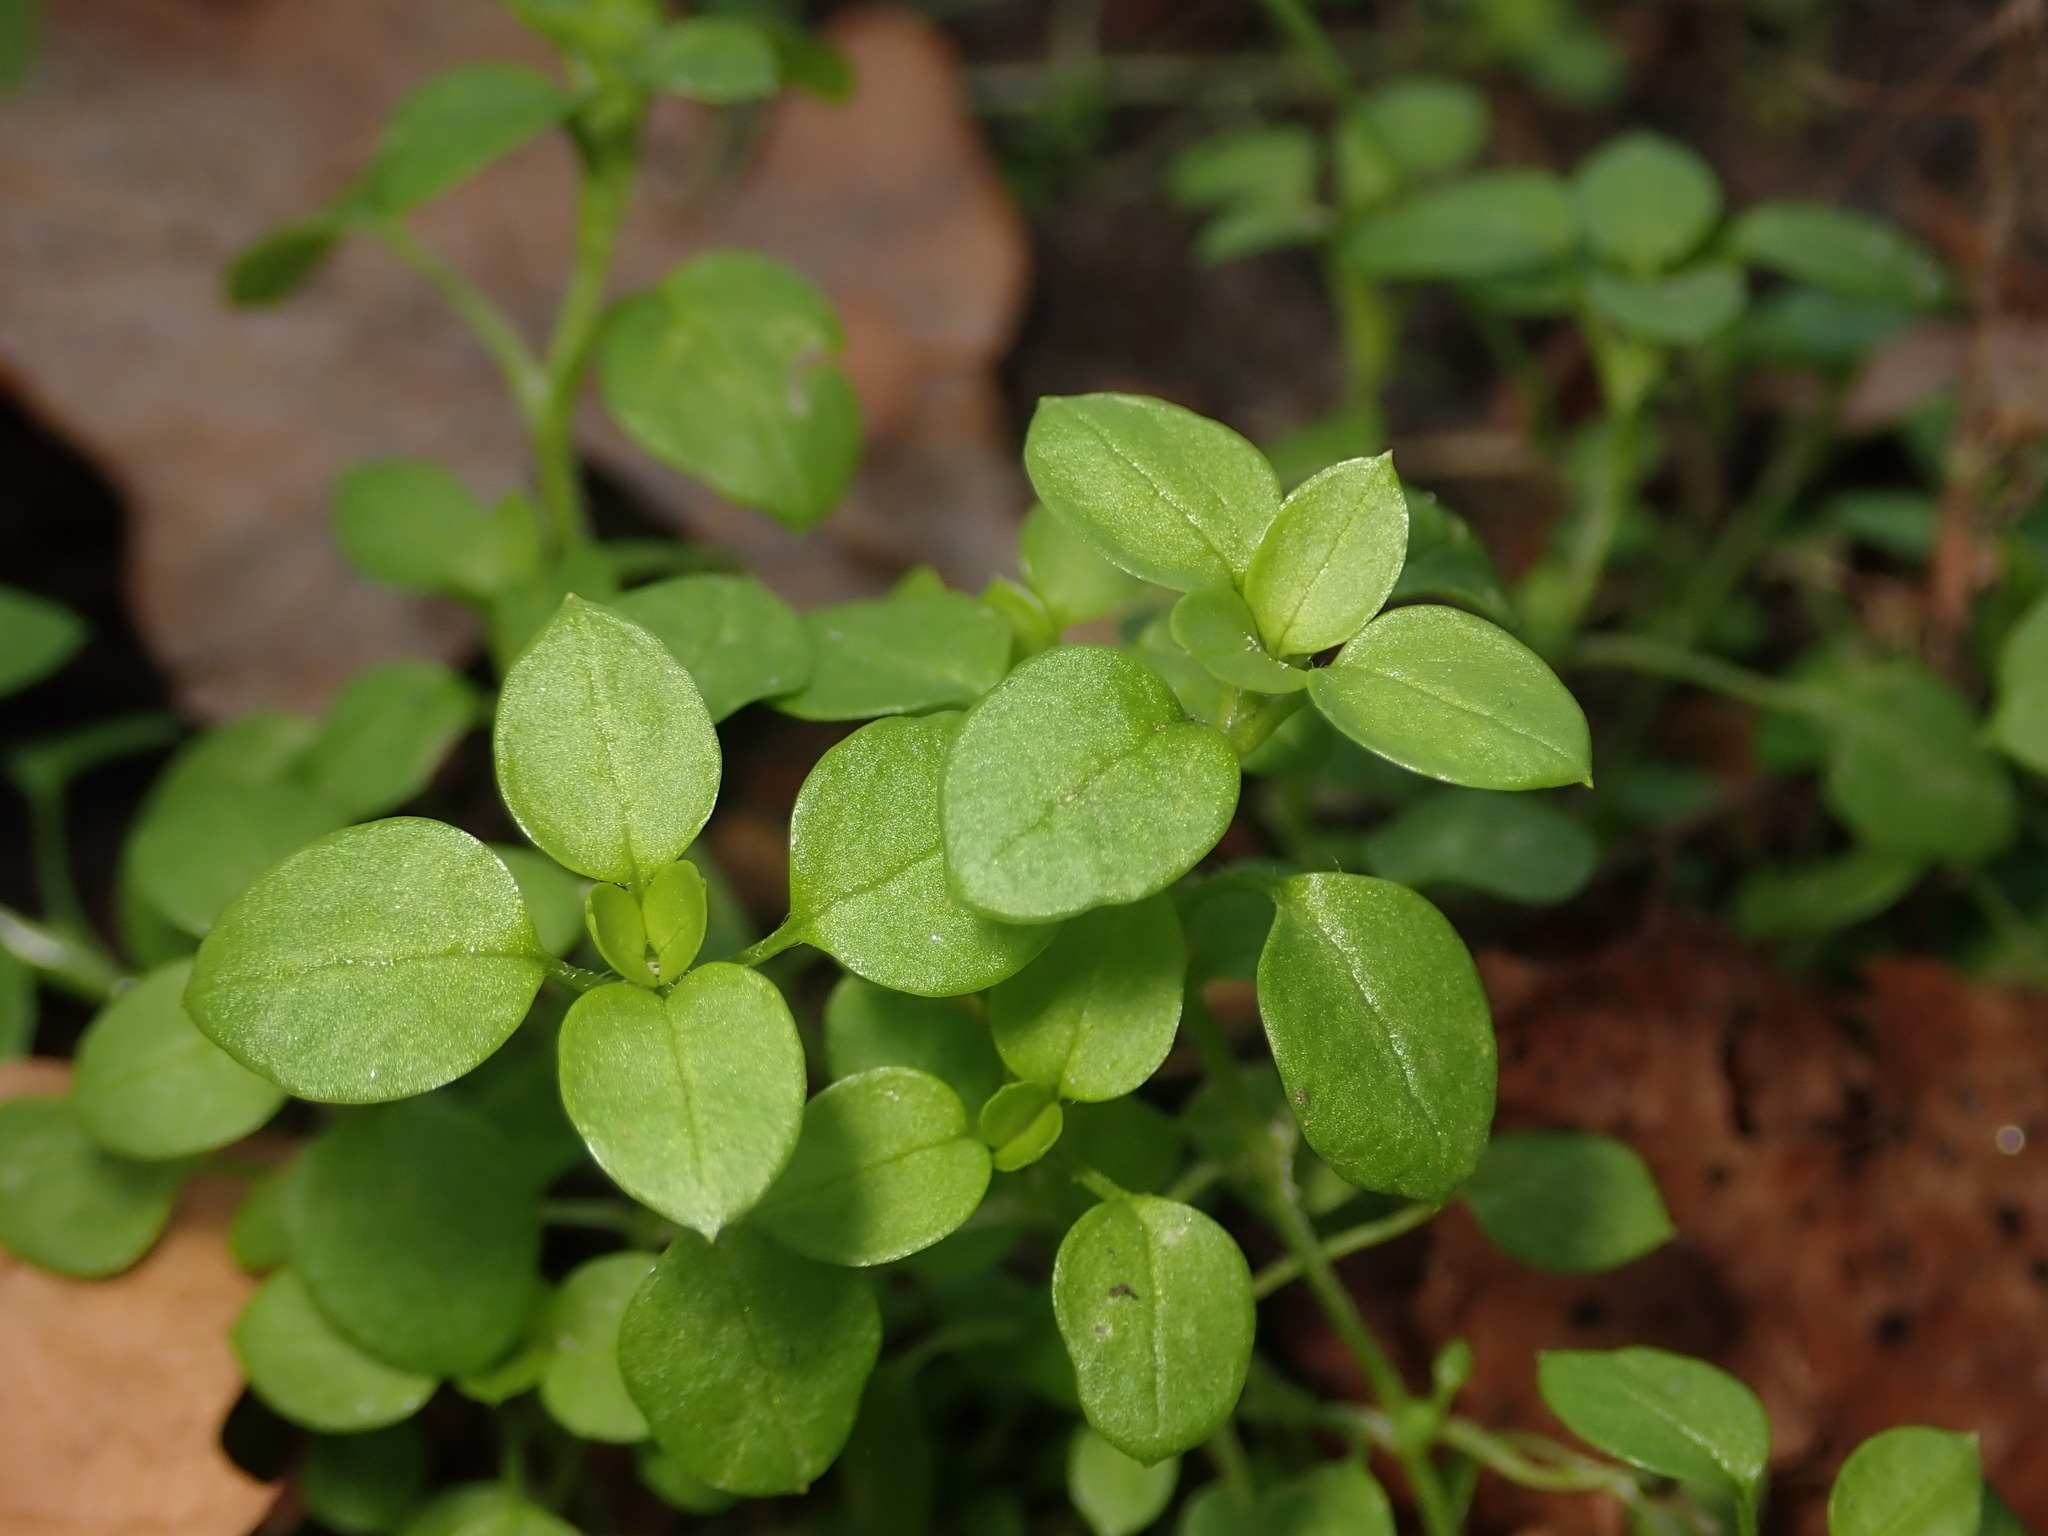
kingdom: Plantae
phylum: Tracheophyta
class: Magnoliopsida
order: Caryophyllales
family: Caryophyllaceae
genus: Stellaria
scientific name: Stellaria media
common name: Common chickweed
